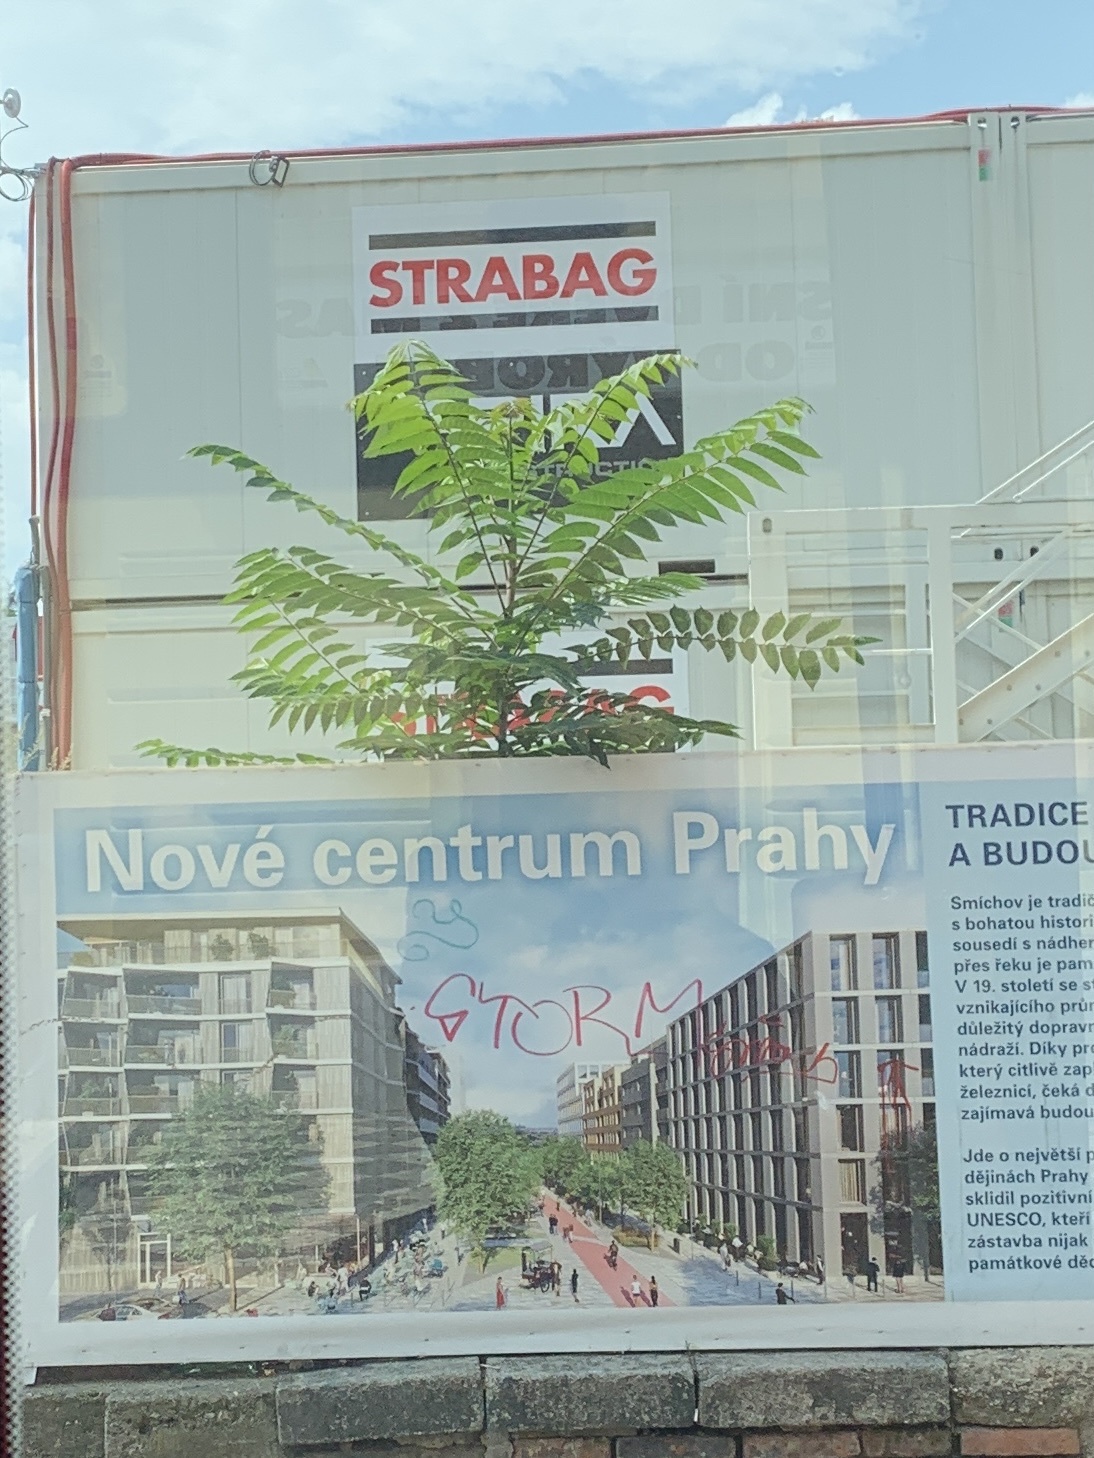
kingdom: Plantae
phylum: Tracheophyta
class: Magnoliopsida
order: Sapindales
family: Simaroubaceae
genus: Ailanthus
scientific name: Ailanthus altissima
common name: Tree-of-heaven
